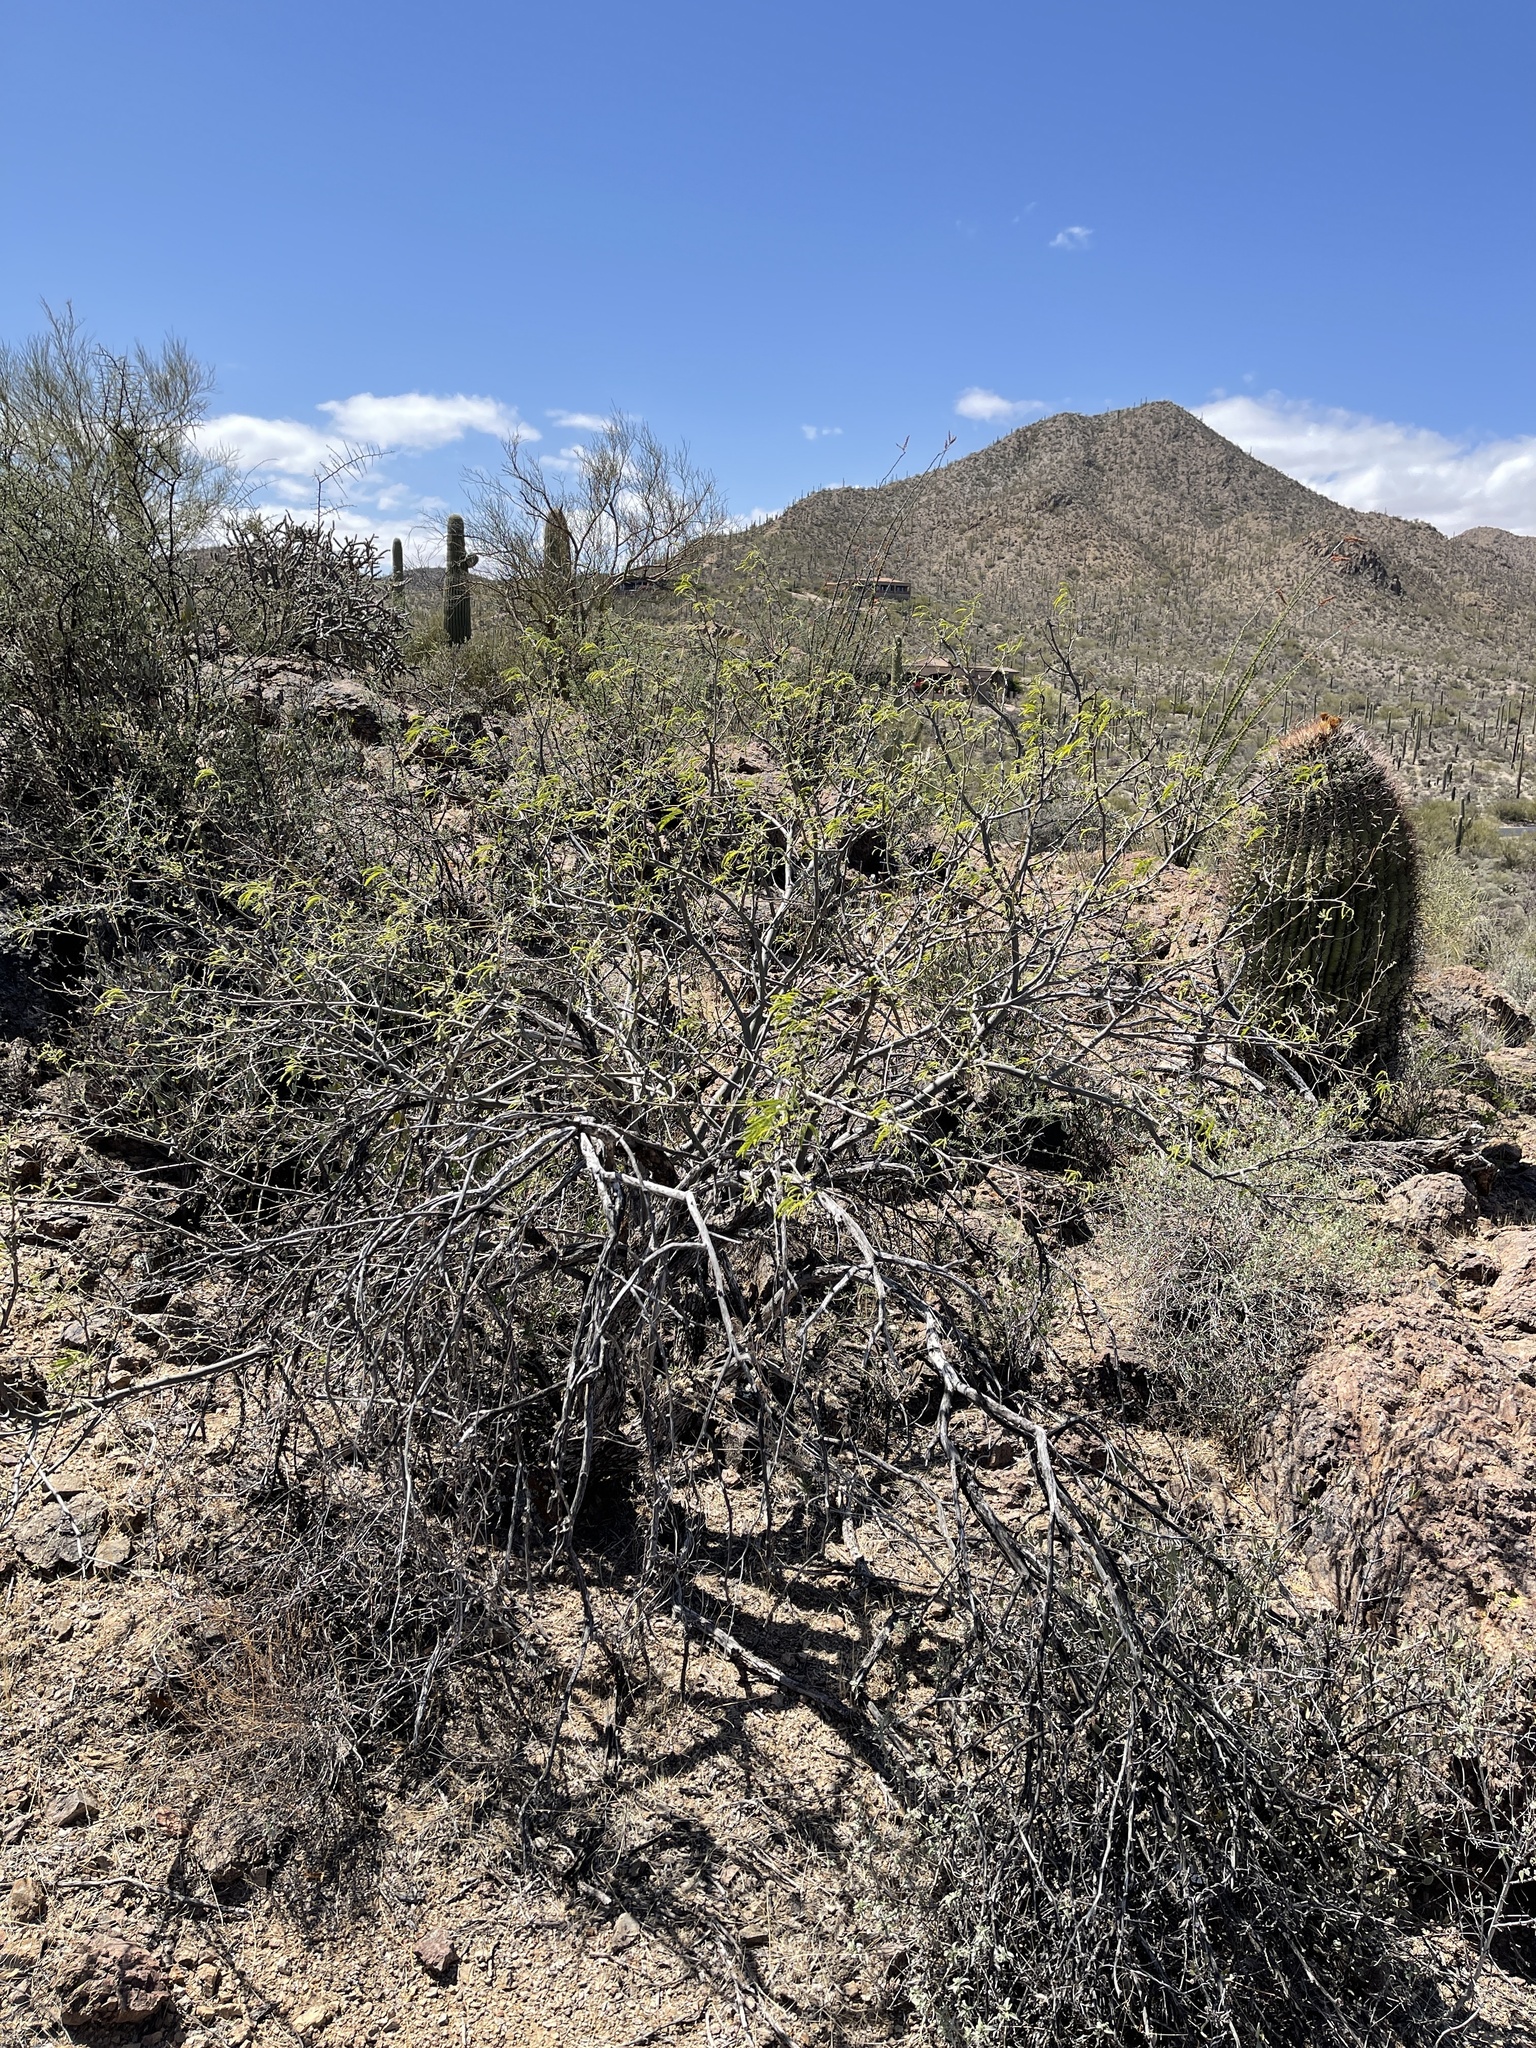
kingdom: Plantae
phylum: Tracheophyta
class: Magnoliopsida
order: Fabales
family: Fabaceae
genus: Prosopis
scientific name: Prosopis velutina
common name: Velvet mesquite
